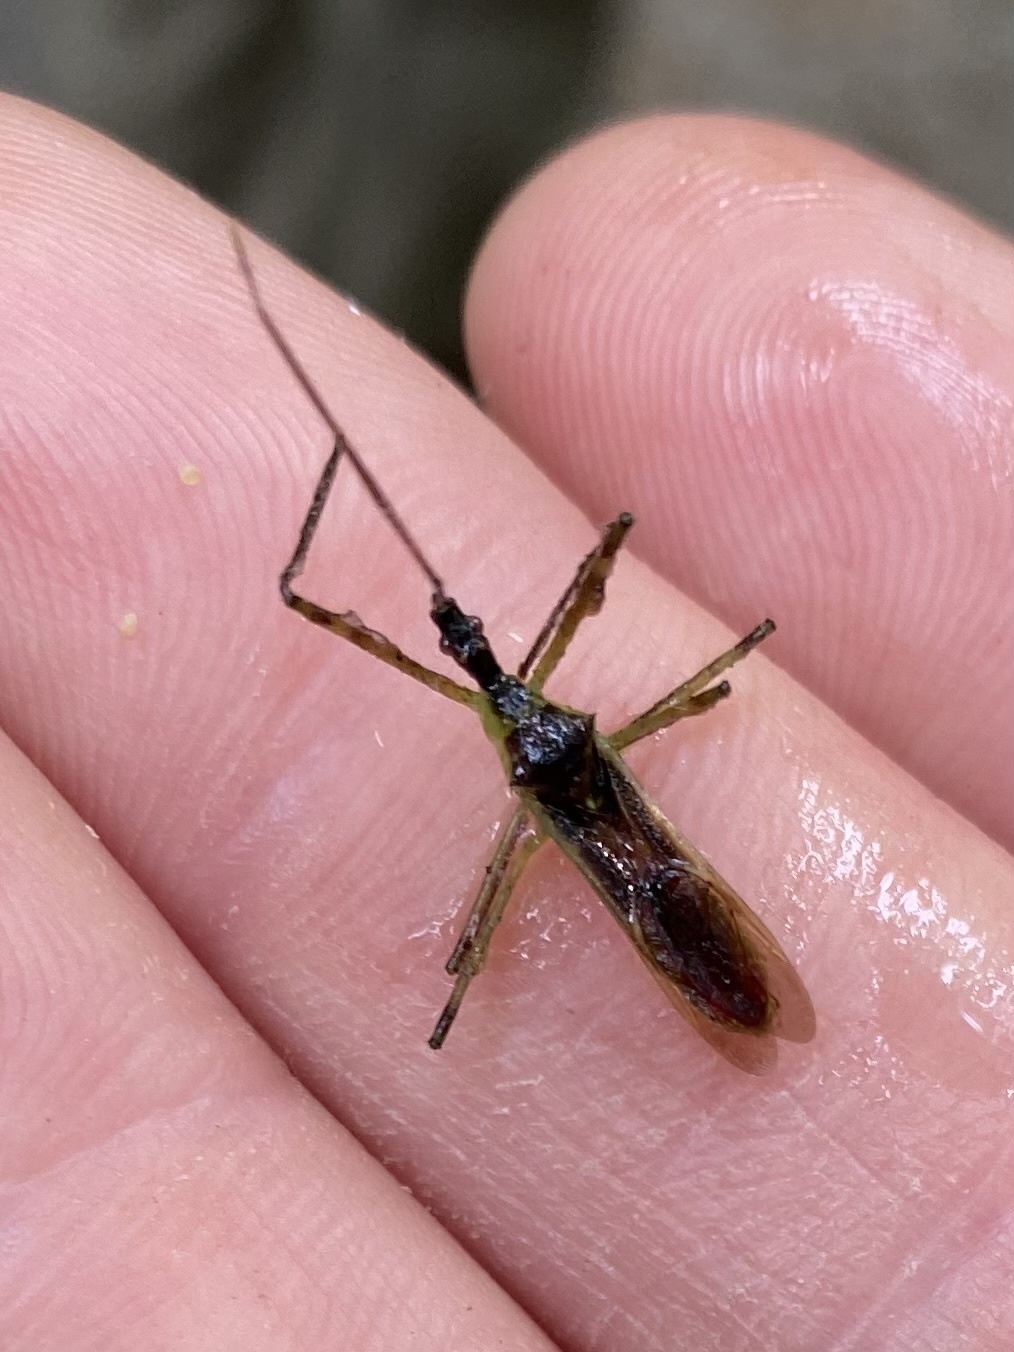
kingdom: Animalia
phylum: Arthropoda
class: Insecta
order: Hemiptera
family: Reduviidae
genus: Zelus
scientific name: Zelus luridus
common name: Pale green assassin bug
